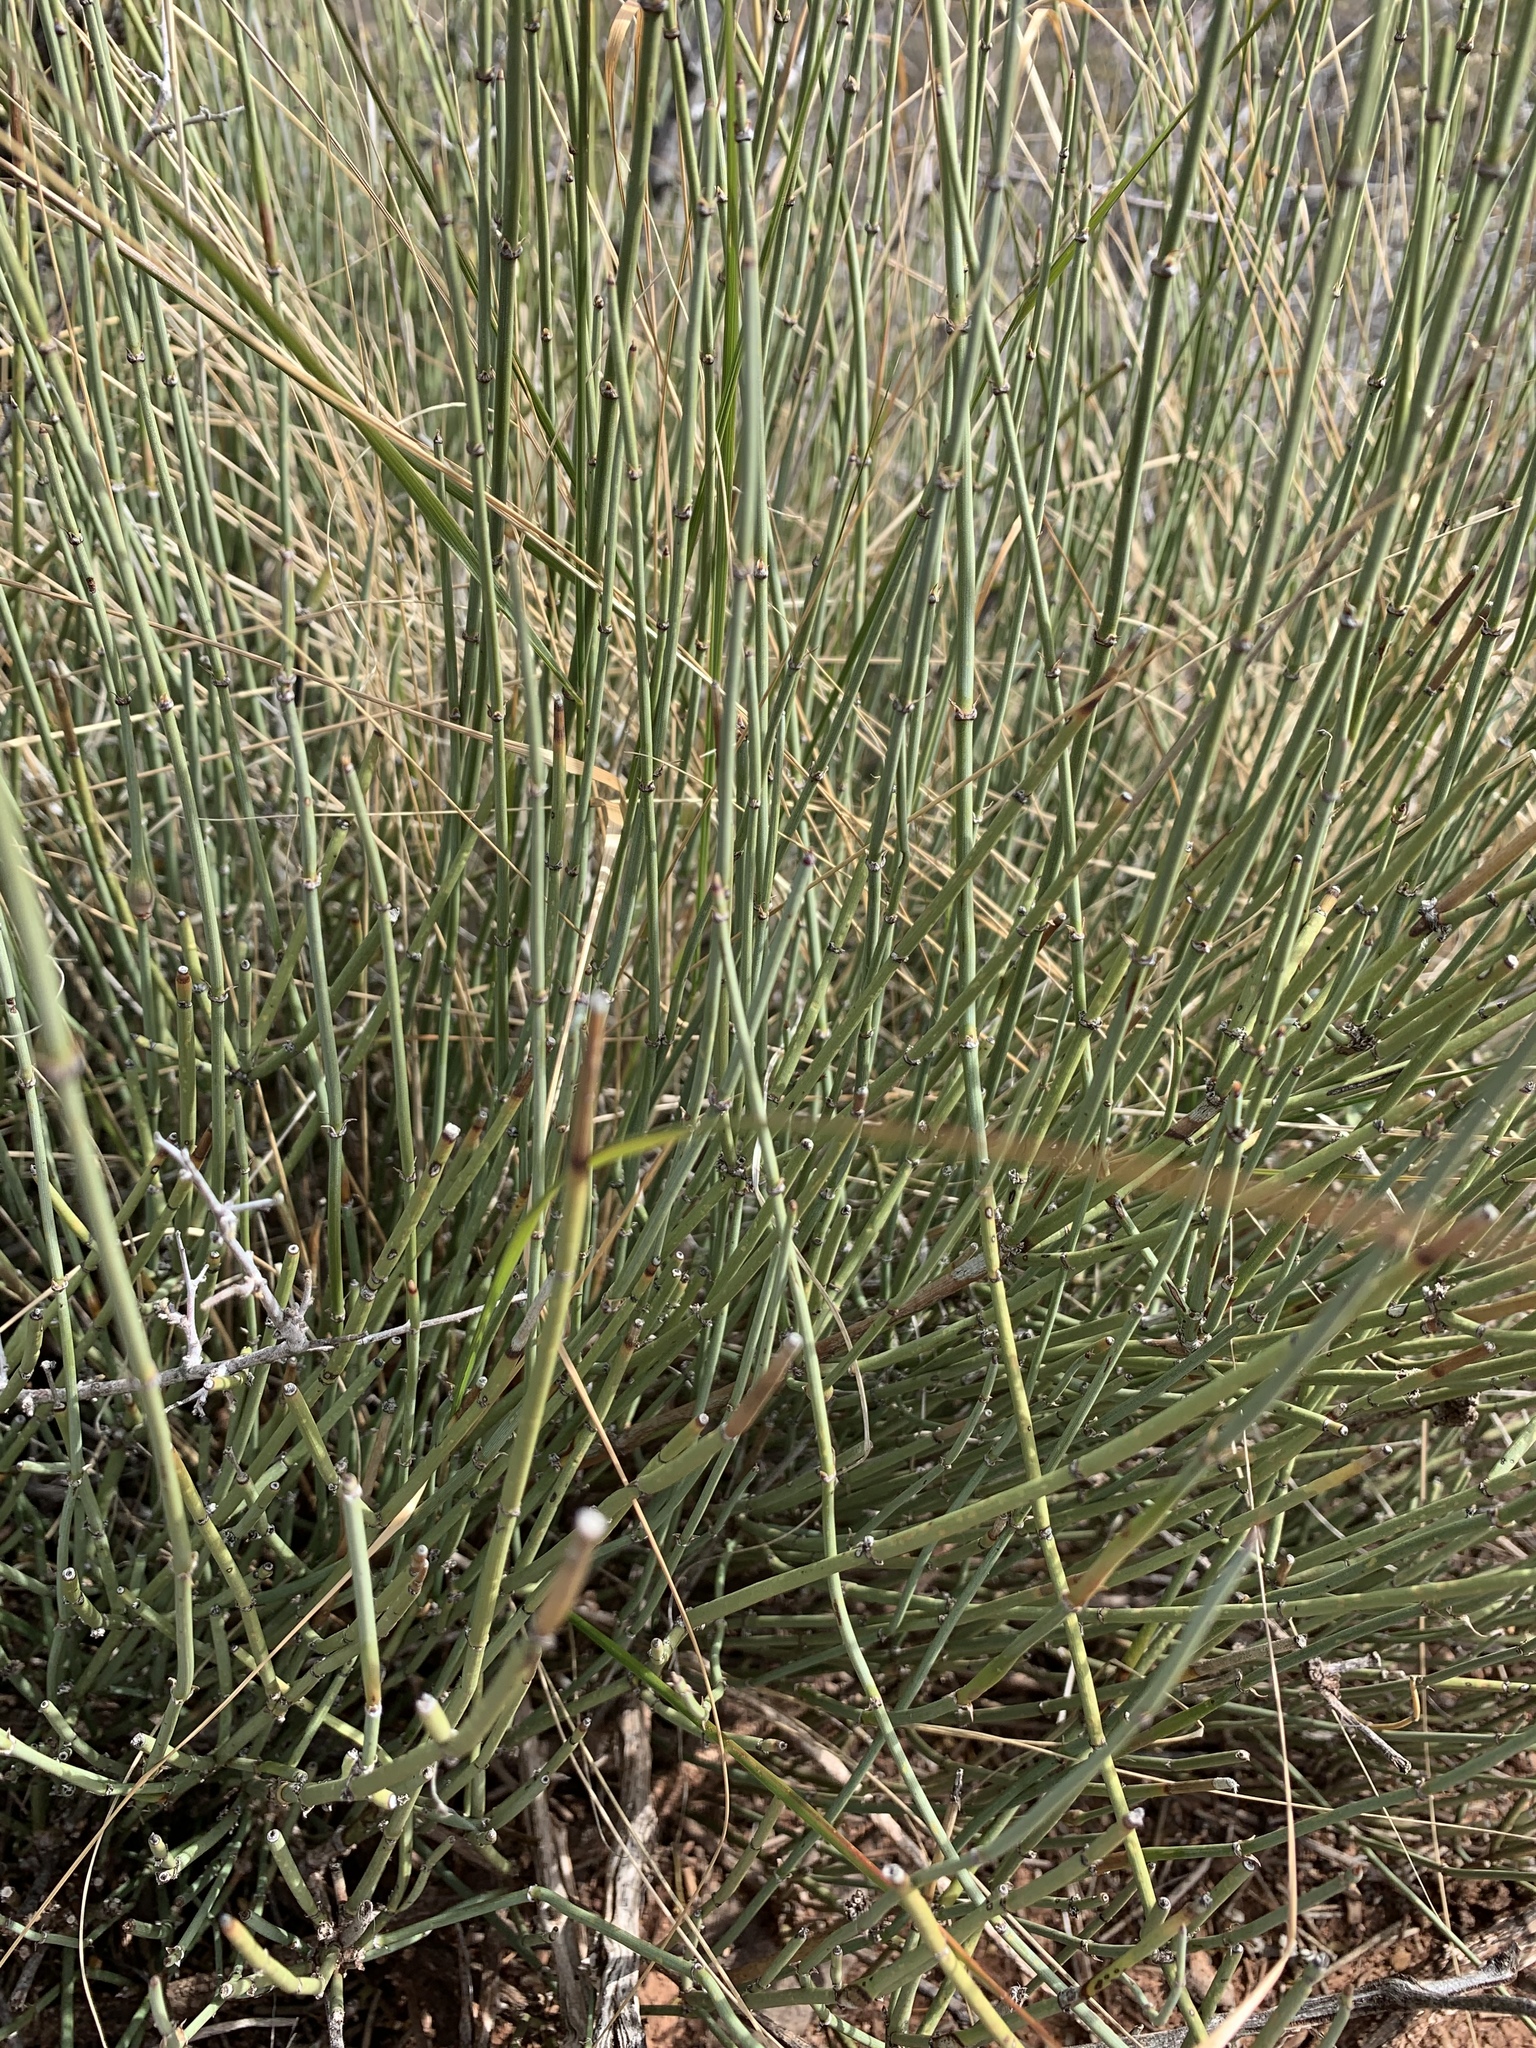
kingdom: Plantae
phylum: Tracheophyta
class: Gnetopsida
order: Ephedrales
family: Ephedraceae
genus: Ephedra
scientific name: Ephedra trifurca
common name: Mexican-tea
